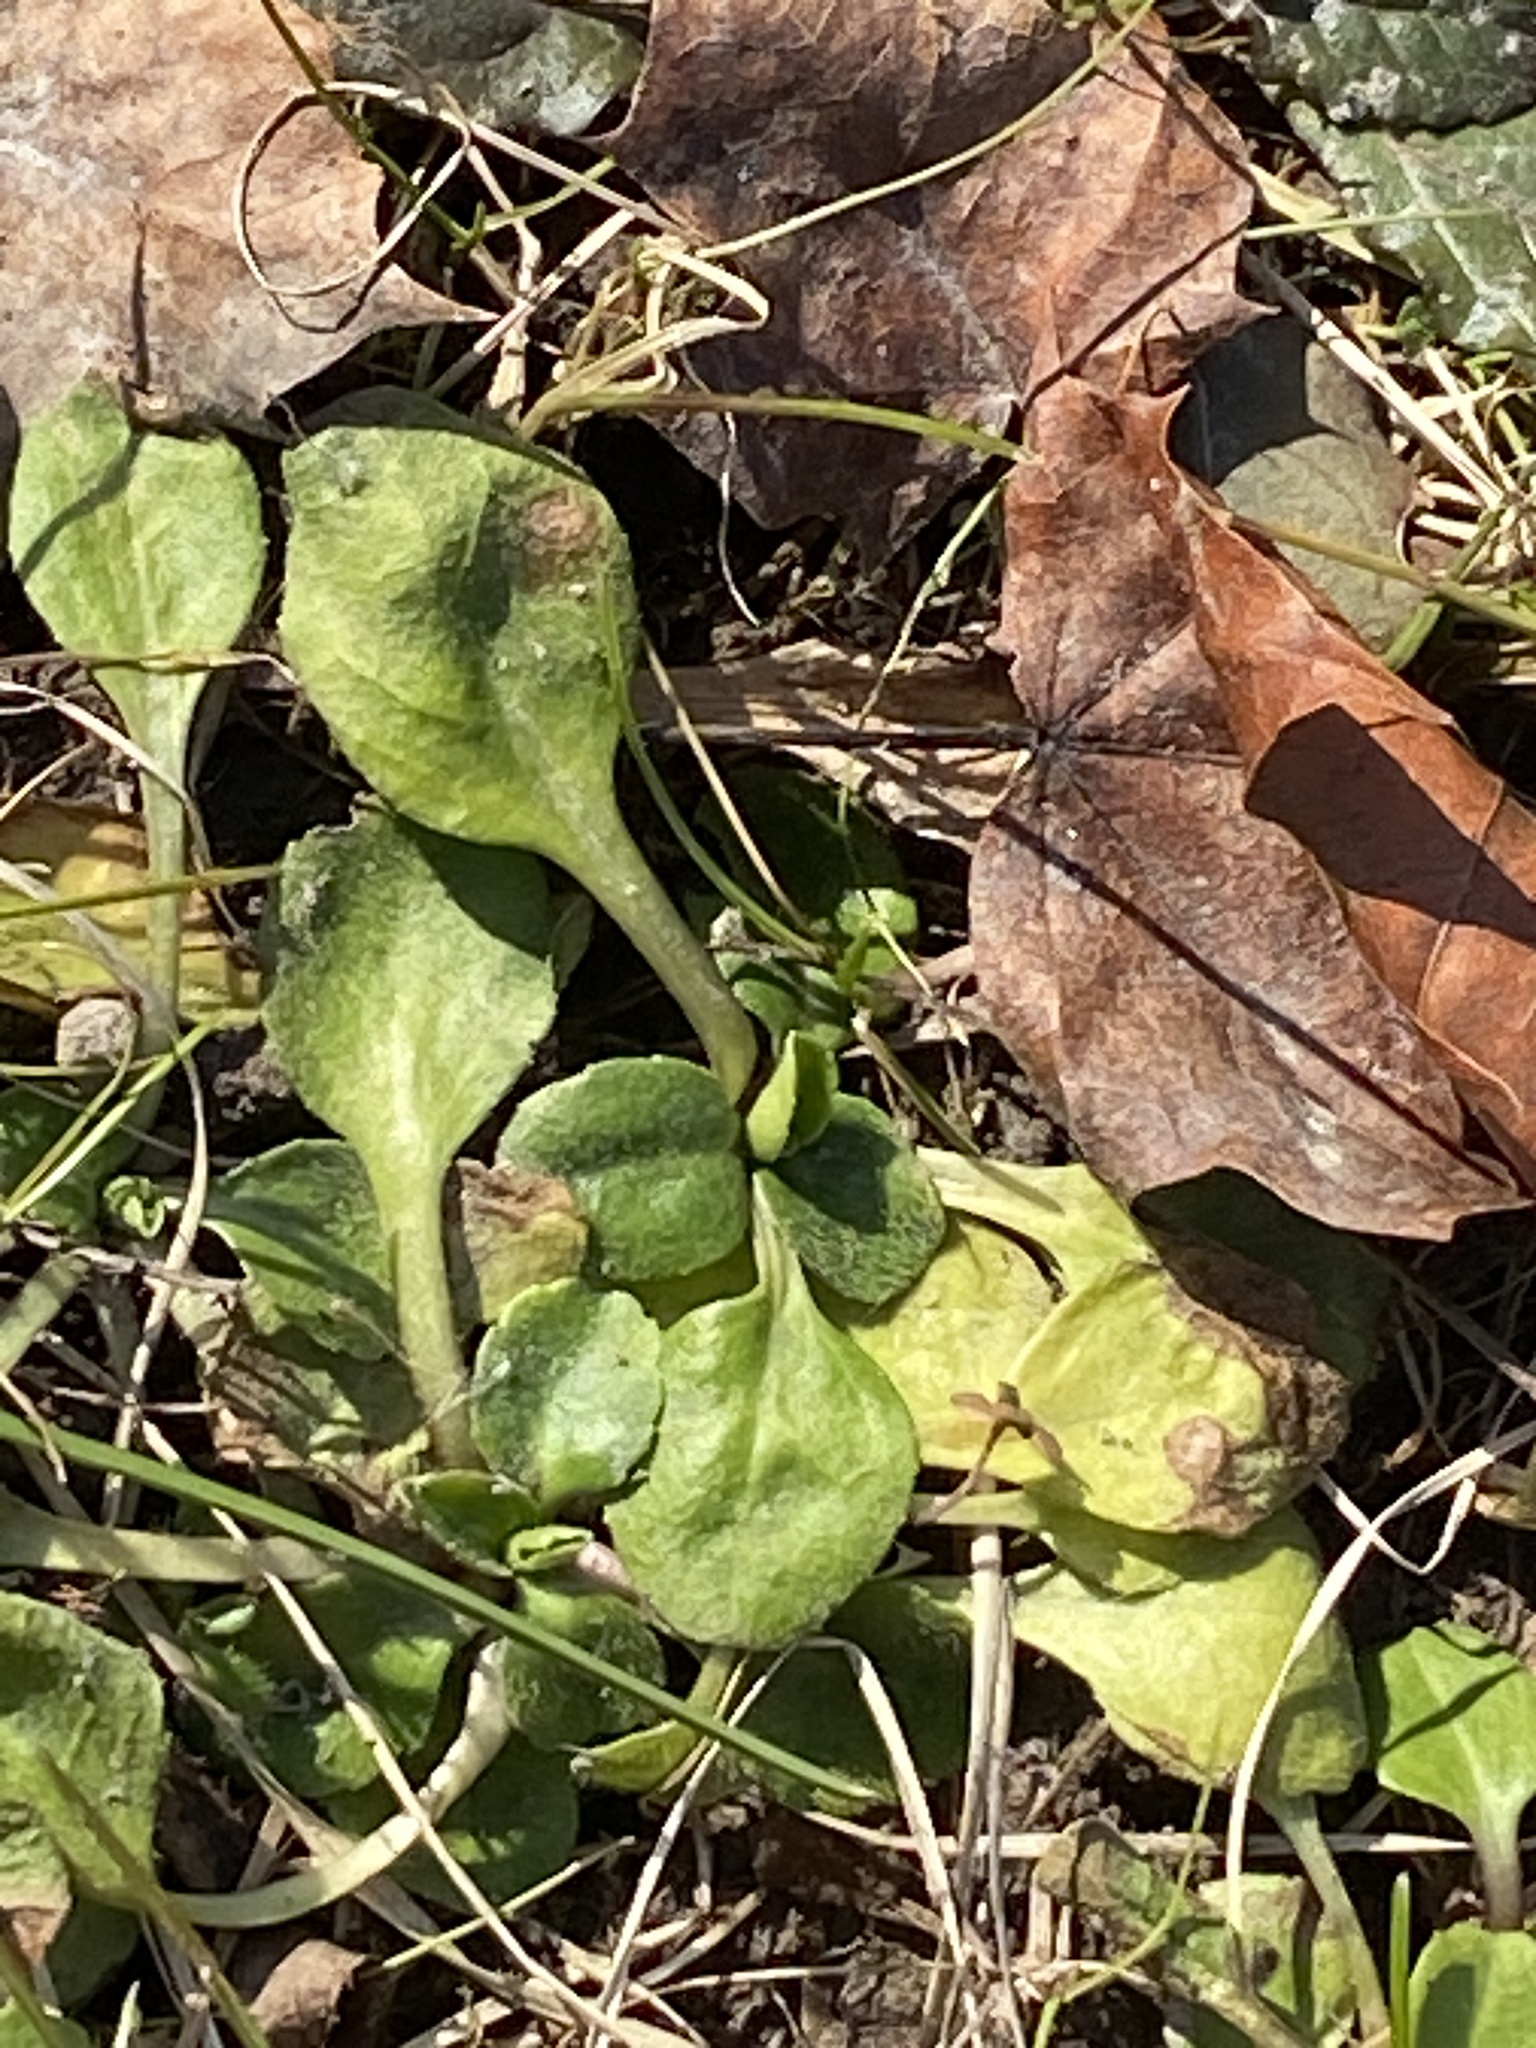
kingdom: Plantae
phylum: Tracheophyta
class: Magnoliopsida
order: Asterales
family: Asteraceae
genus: Bellis
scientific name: Bellis perennis
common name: Lawndaisy
